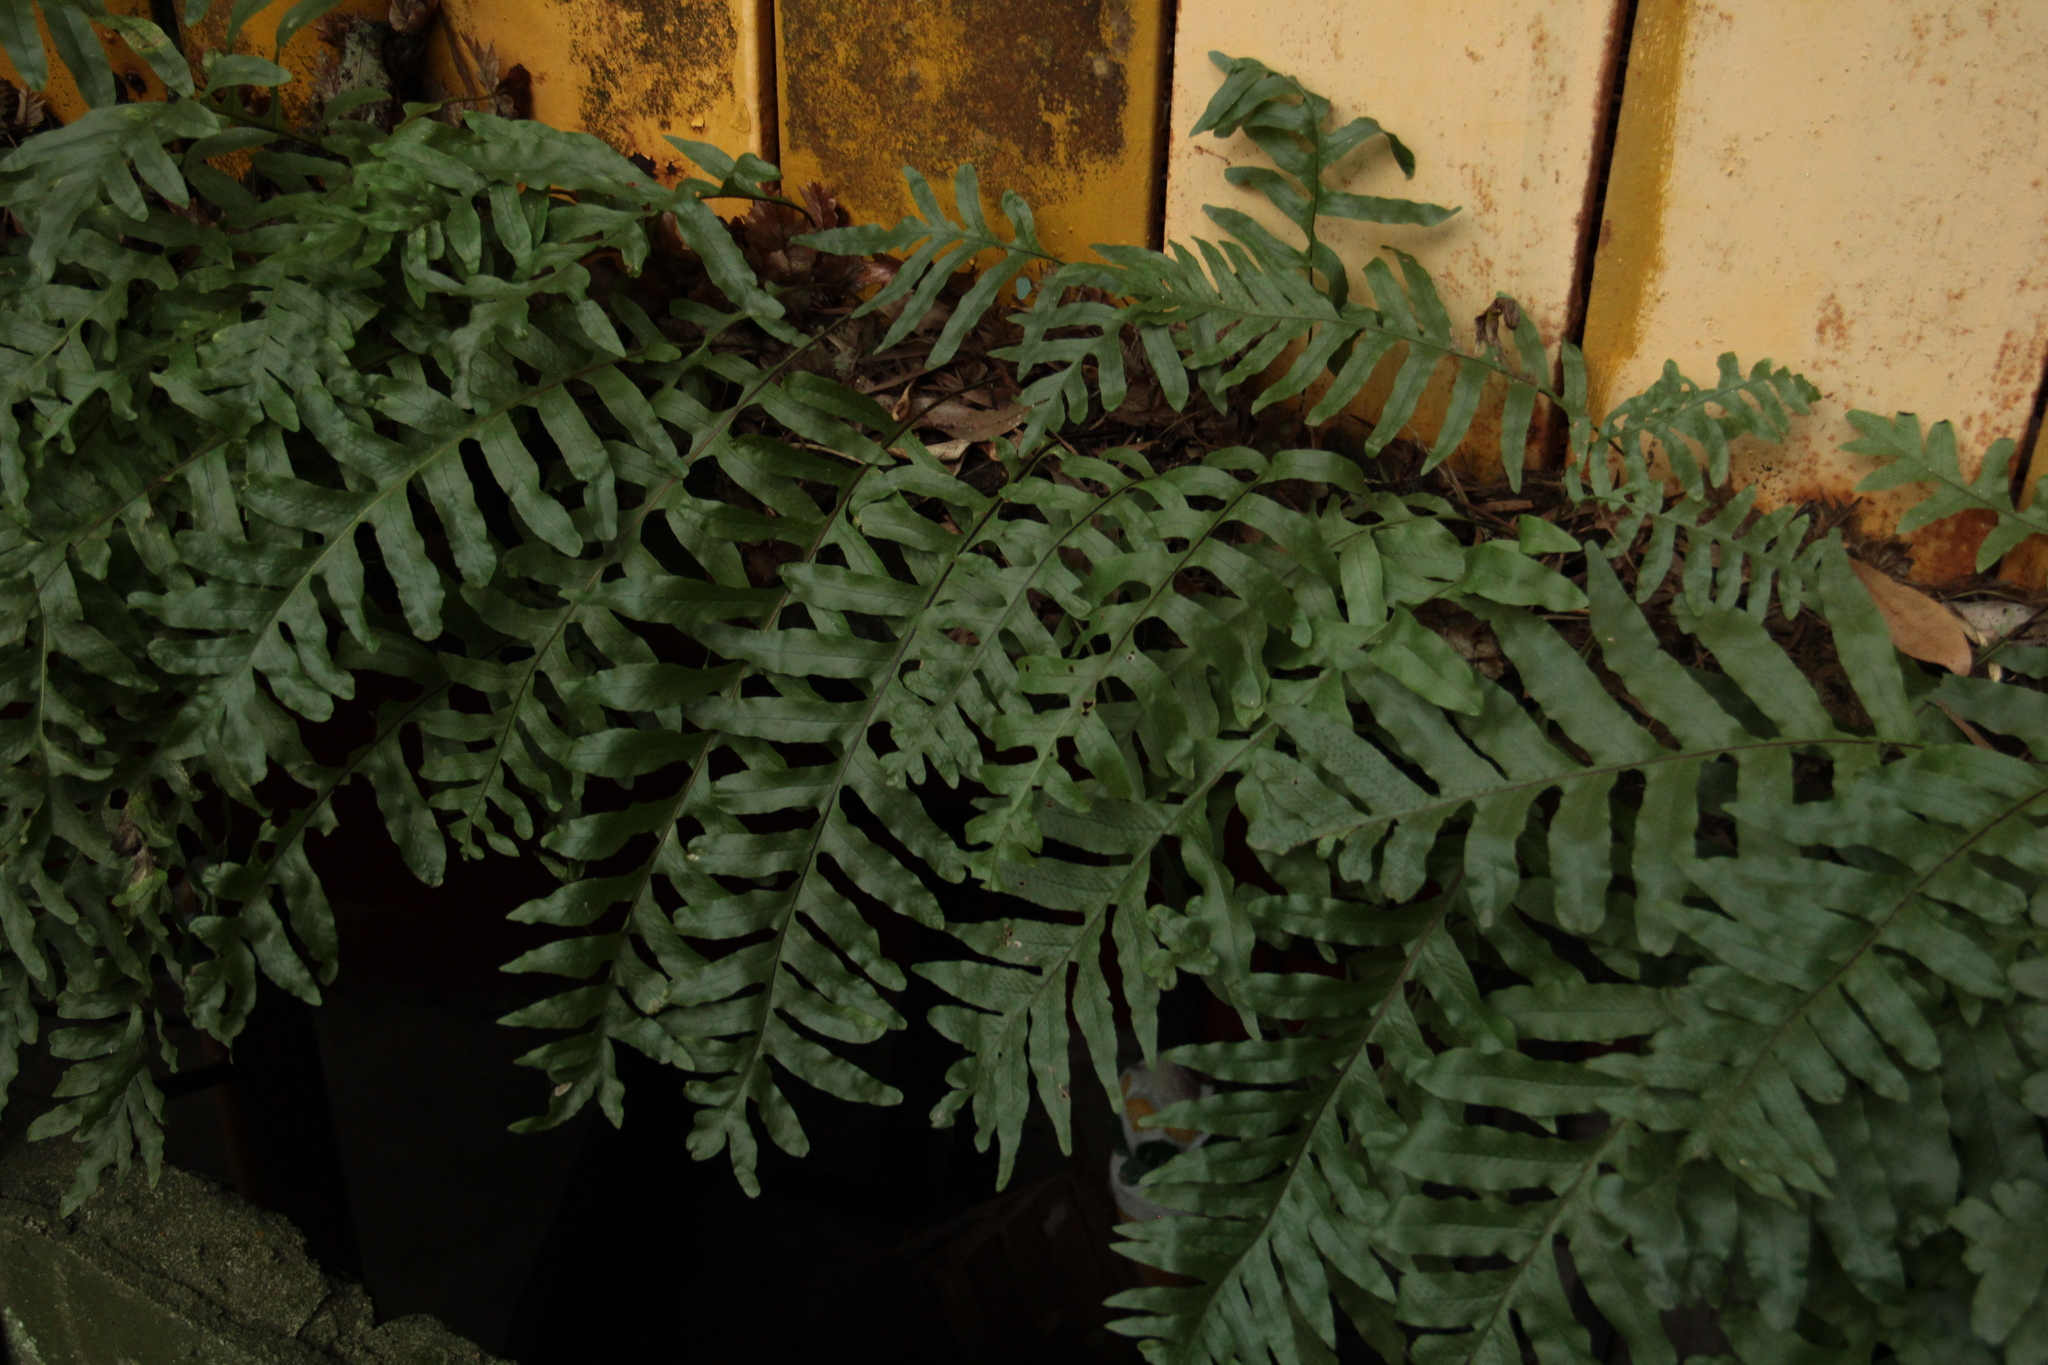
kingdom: Plantae
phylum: Tracheophyta
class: Polypodiopsida
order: Polypodiales
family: Polypodiaceae
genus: Drynaria
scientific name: Drynaria roosii
